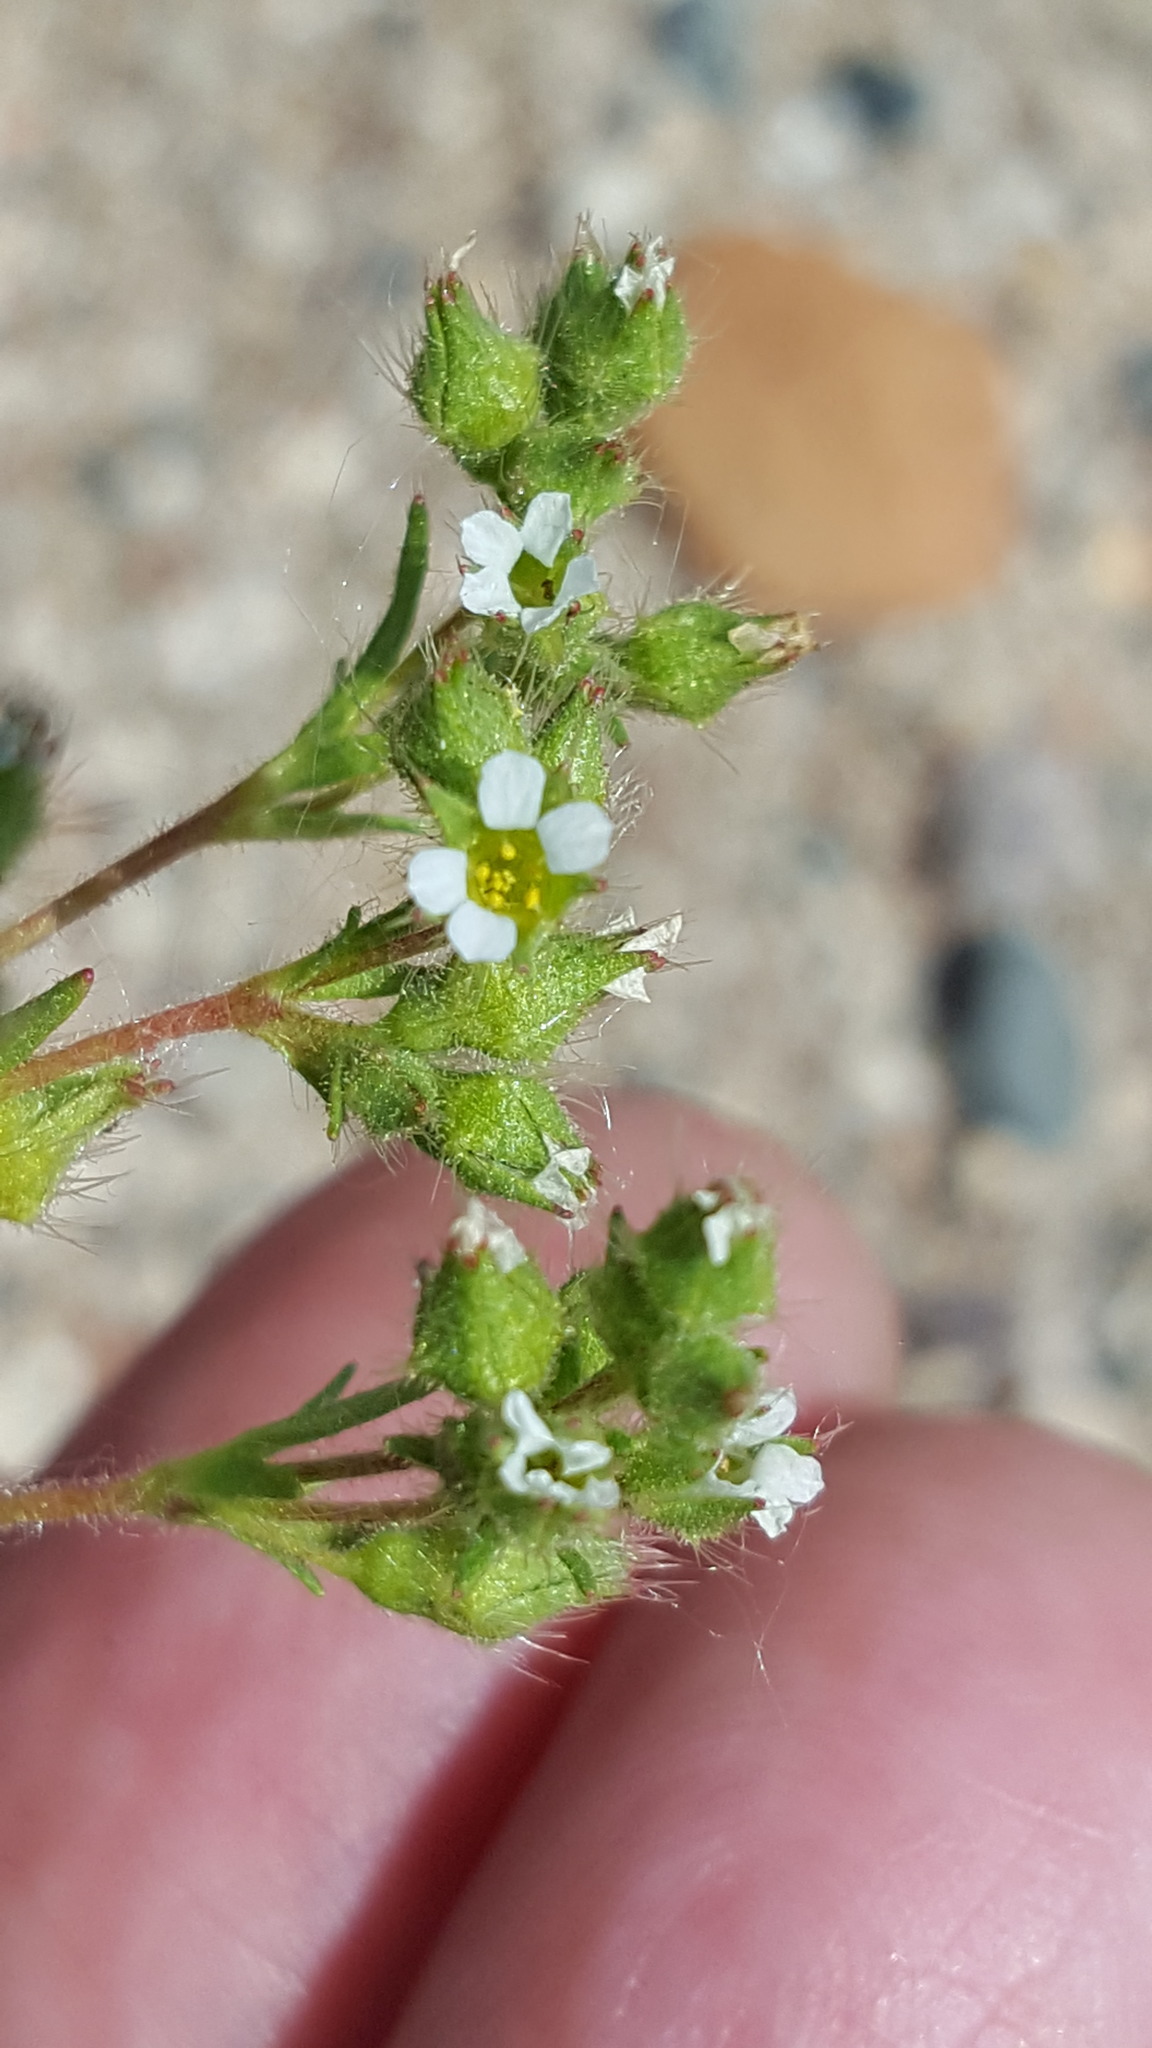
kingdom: Plantae
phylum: Tracheophyta
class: Magnoliopsida
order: Rosales
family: Rosaceae
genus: Chamaerhodos
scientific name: Chamaerhodos erecta
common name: American chamaerhodos
